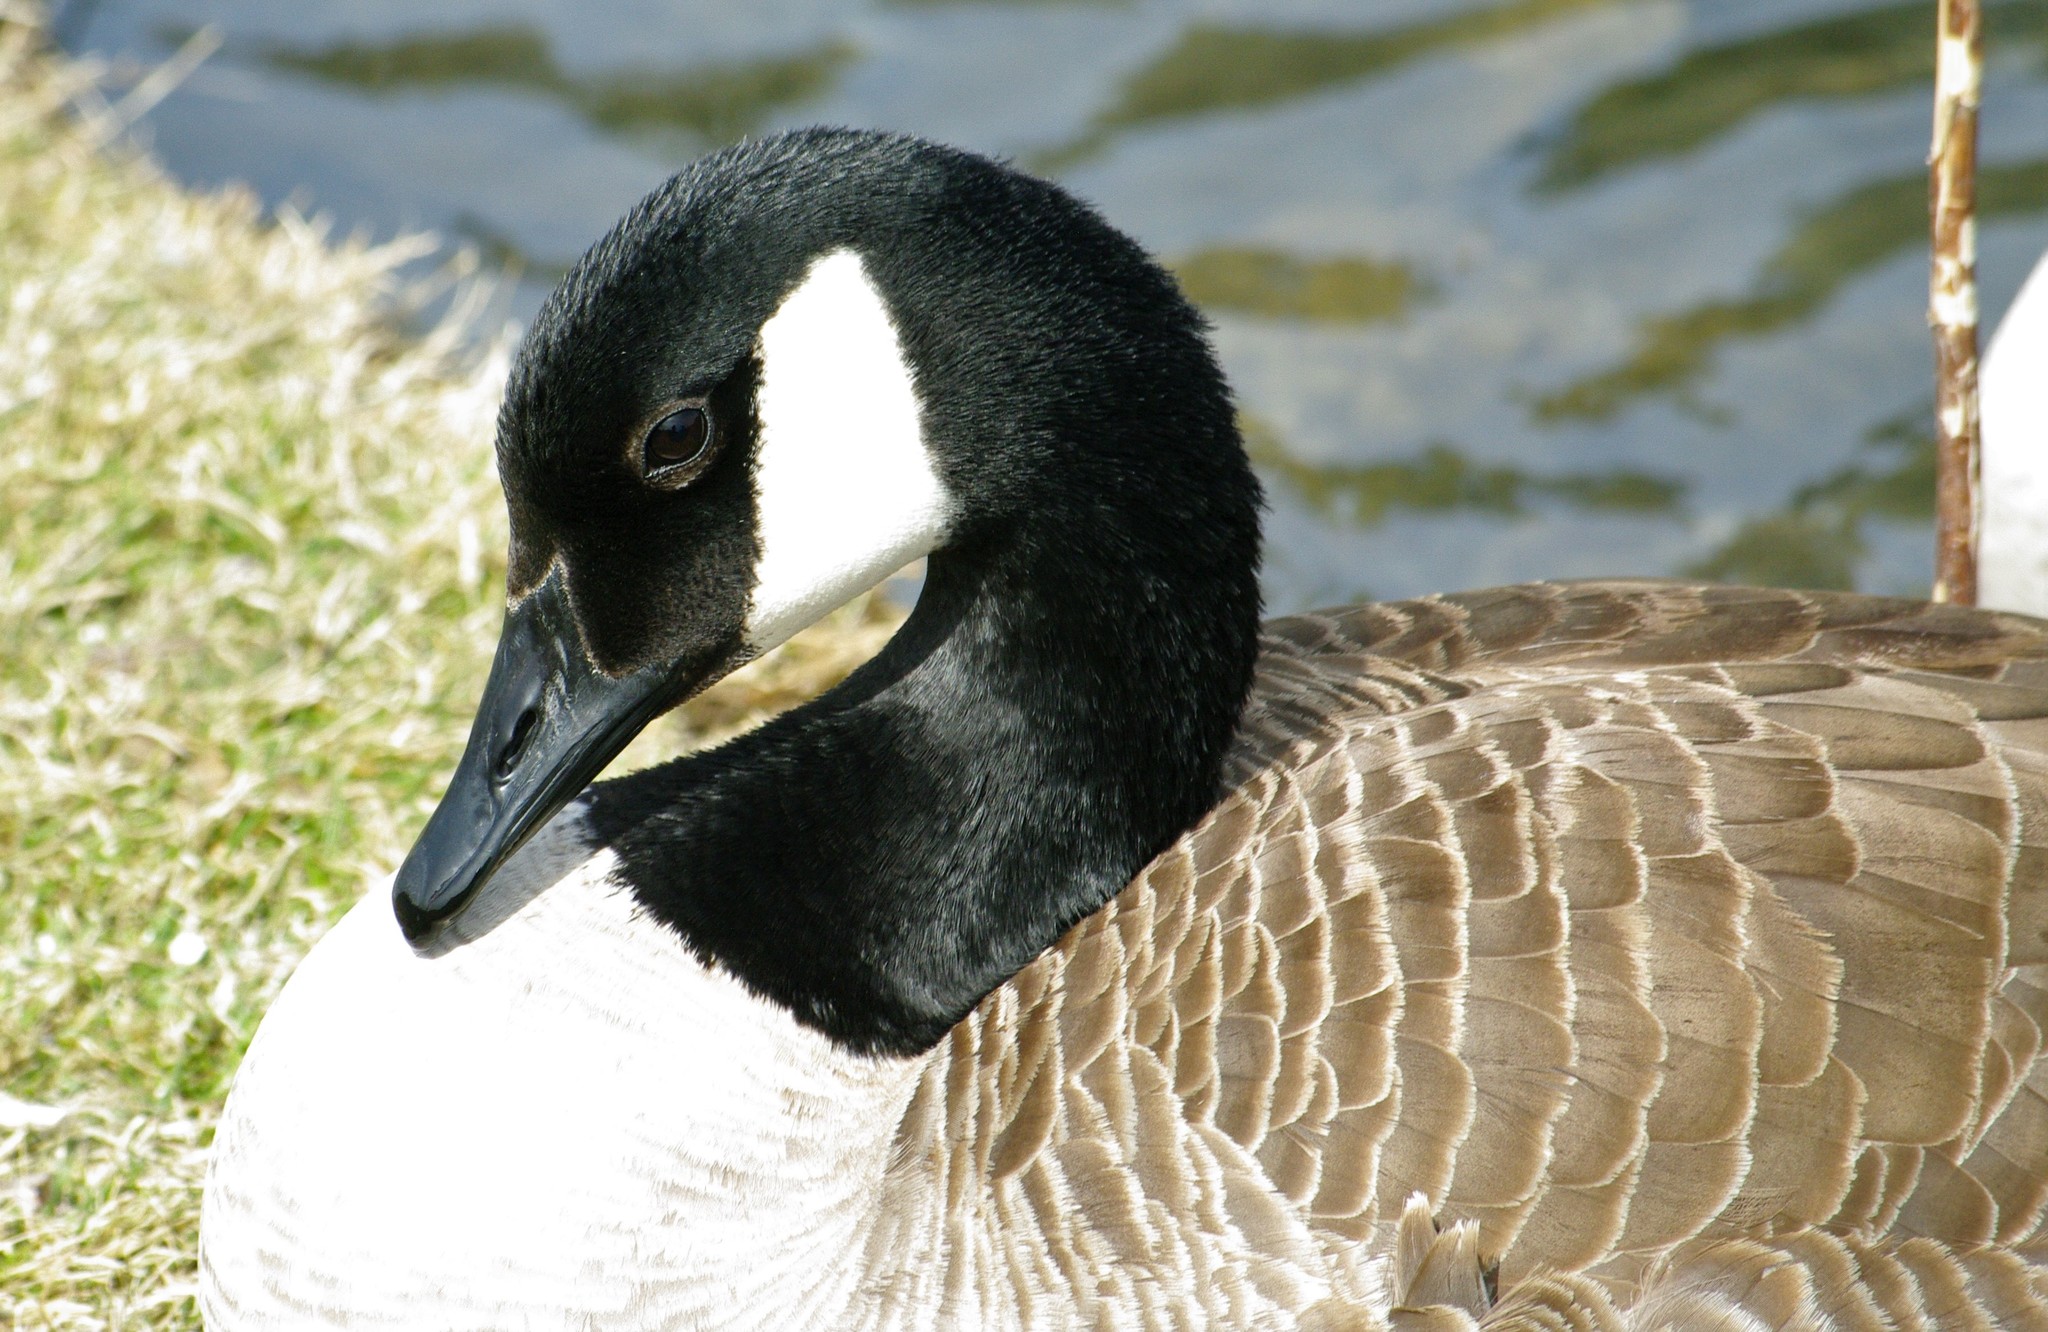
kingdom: Animalia
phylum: Chordata
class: Aves
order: Anseriformes
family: Anatidae
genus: Branta
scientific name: Branta canadensis
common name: Canada goose
